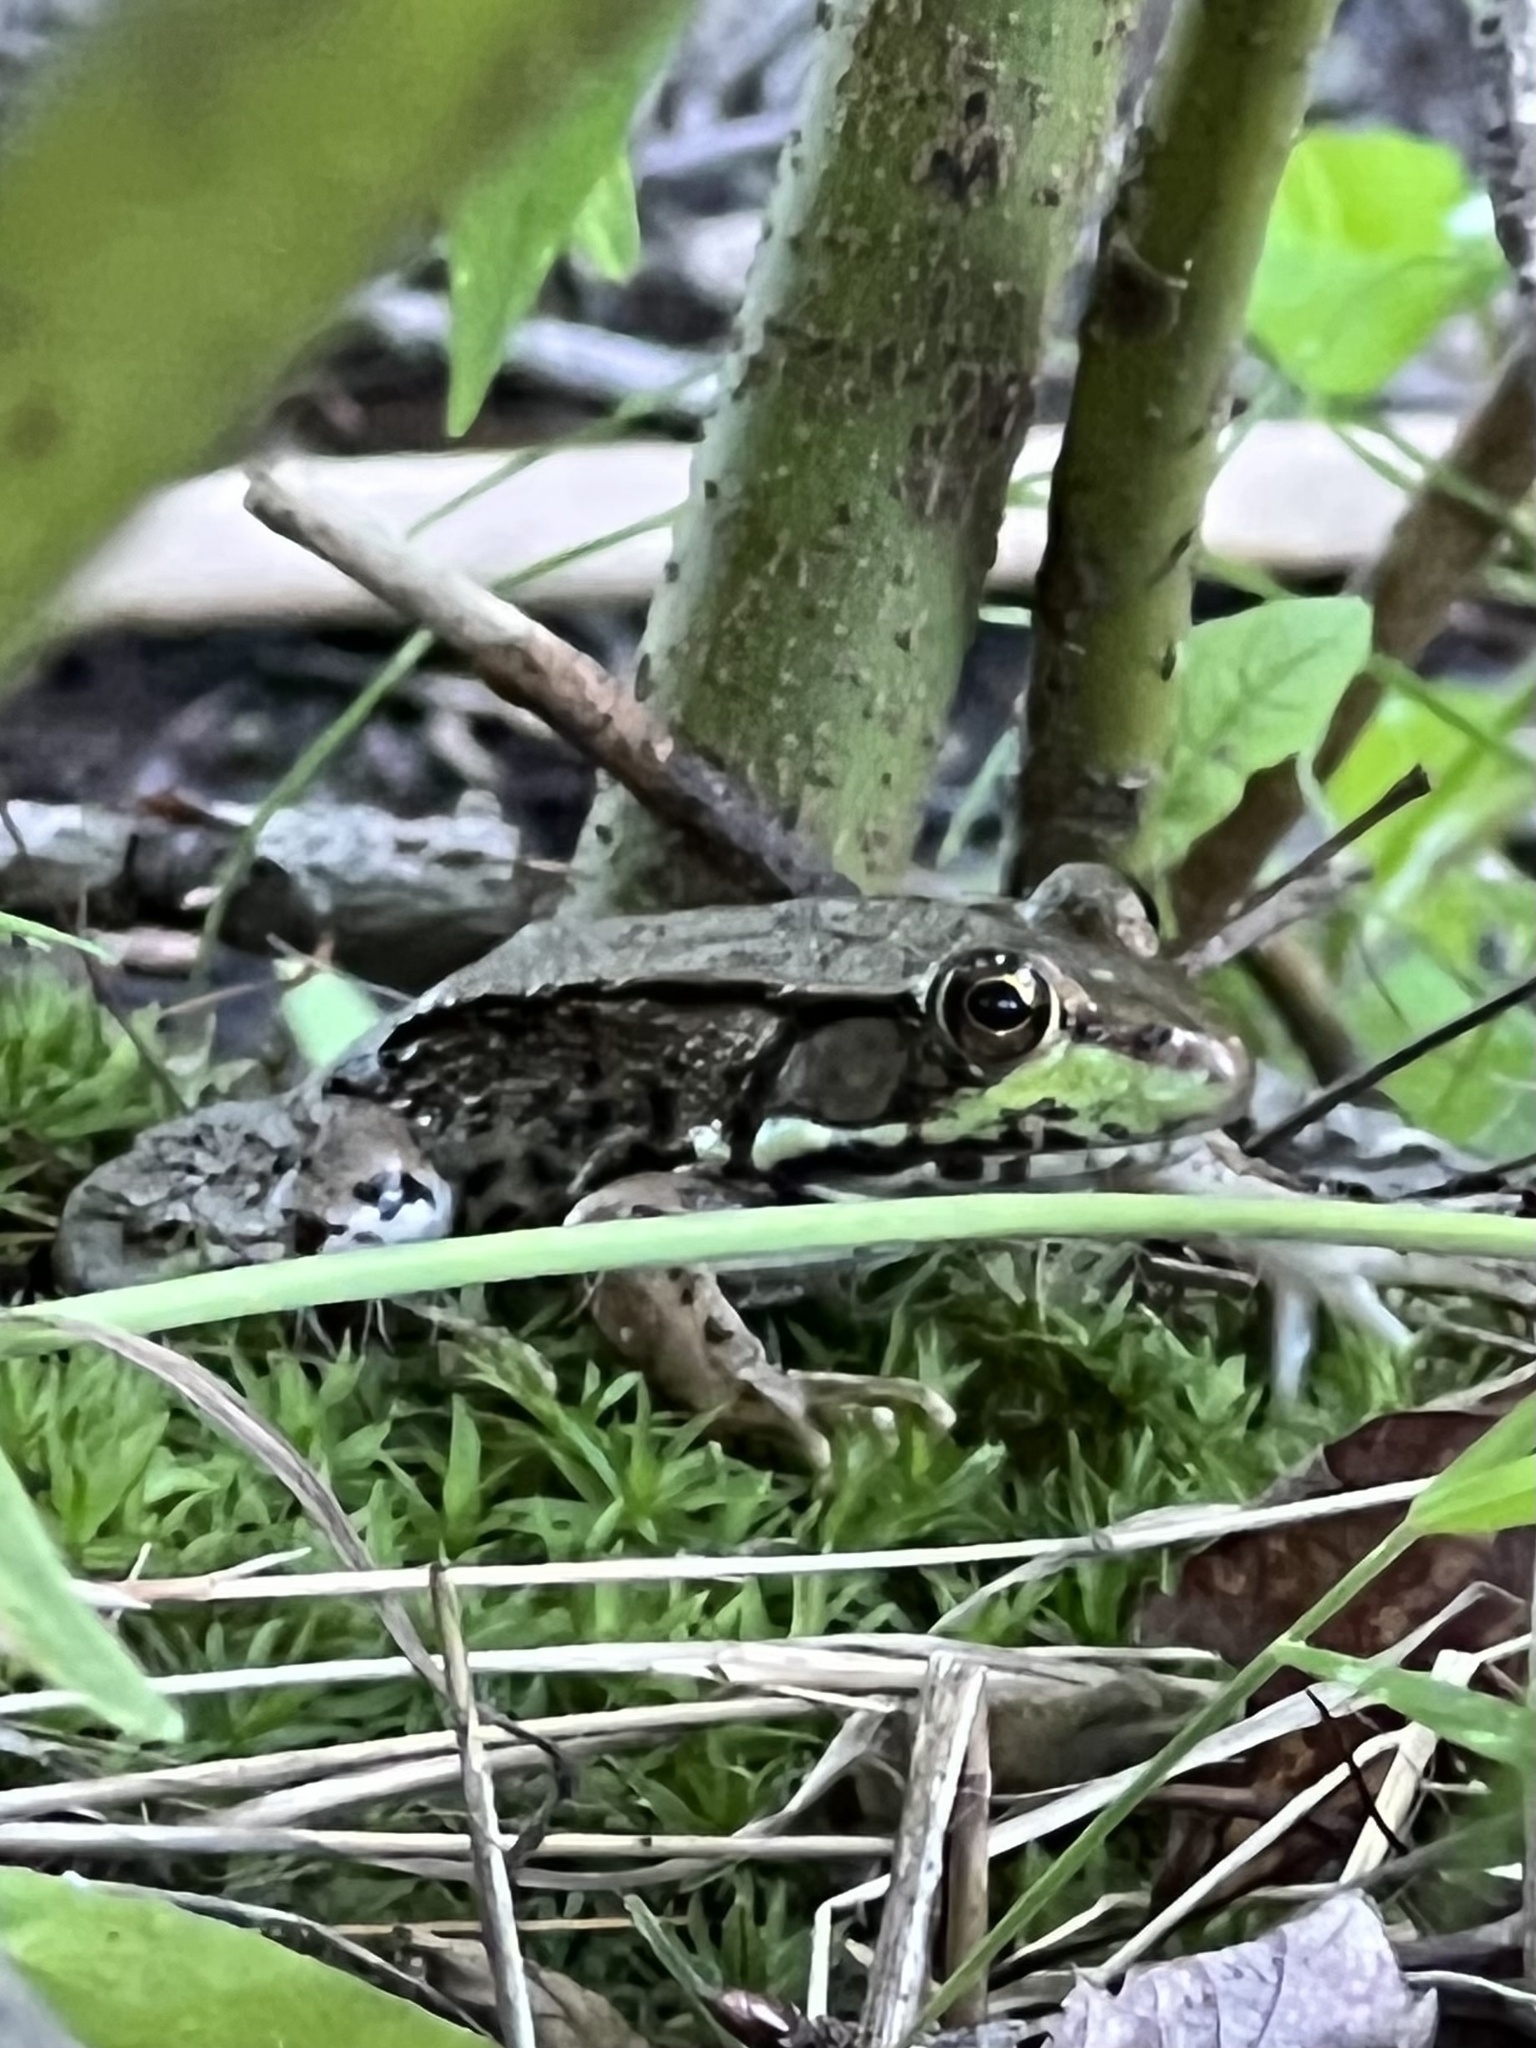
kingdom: Animalia
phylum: Chordata
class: Amphibia
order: Anura
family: Ranidae
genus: Lithobates
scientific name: Lithobates clamitans
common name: Green frog
